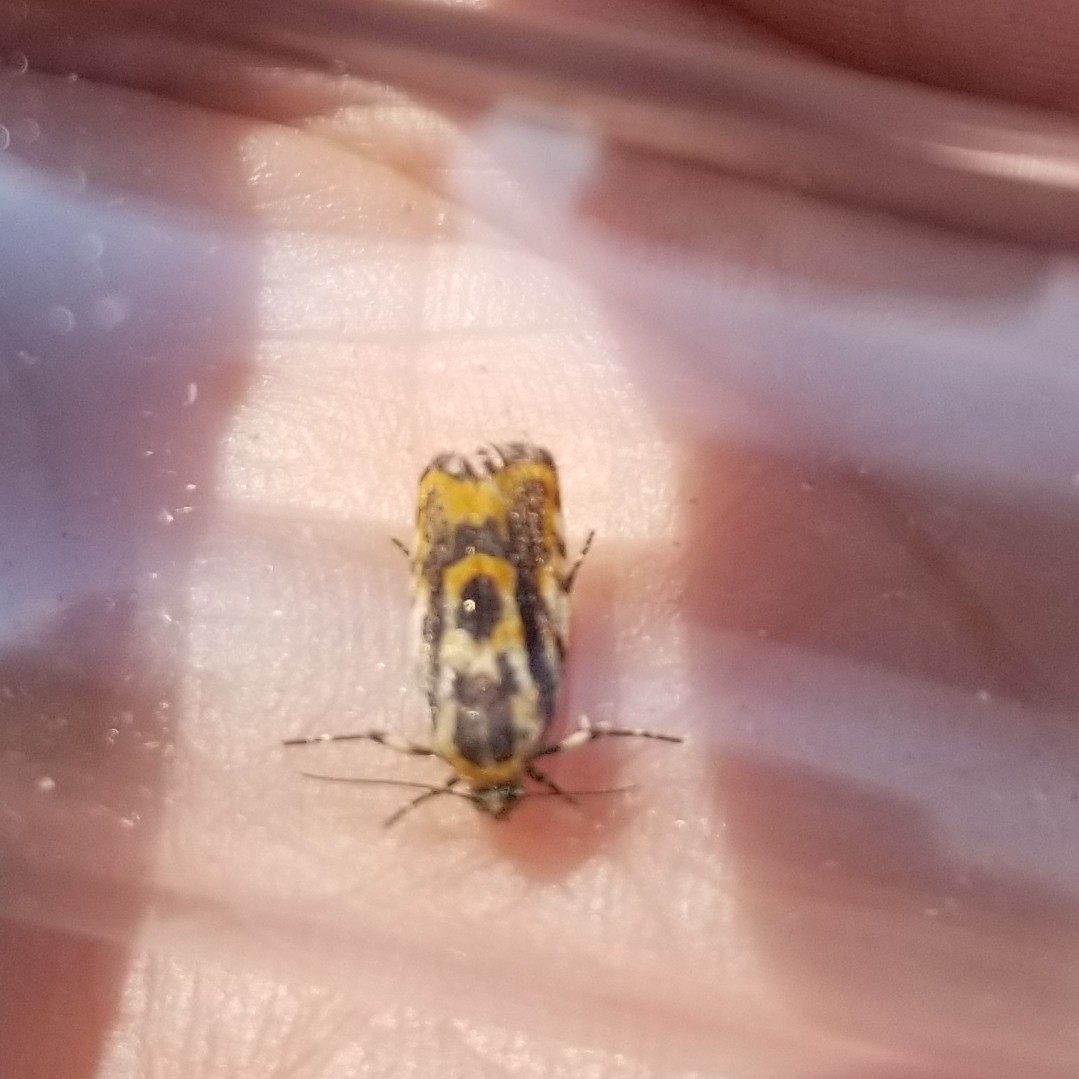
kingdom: Animalia
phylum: Arthropoda
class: Insecta
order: Lepidoptera
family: Noctuidae
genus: Acontia
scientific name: Acontia leo
